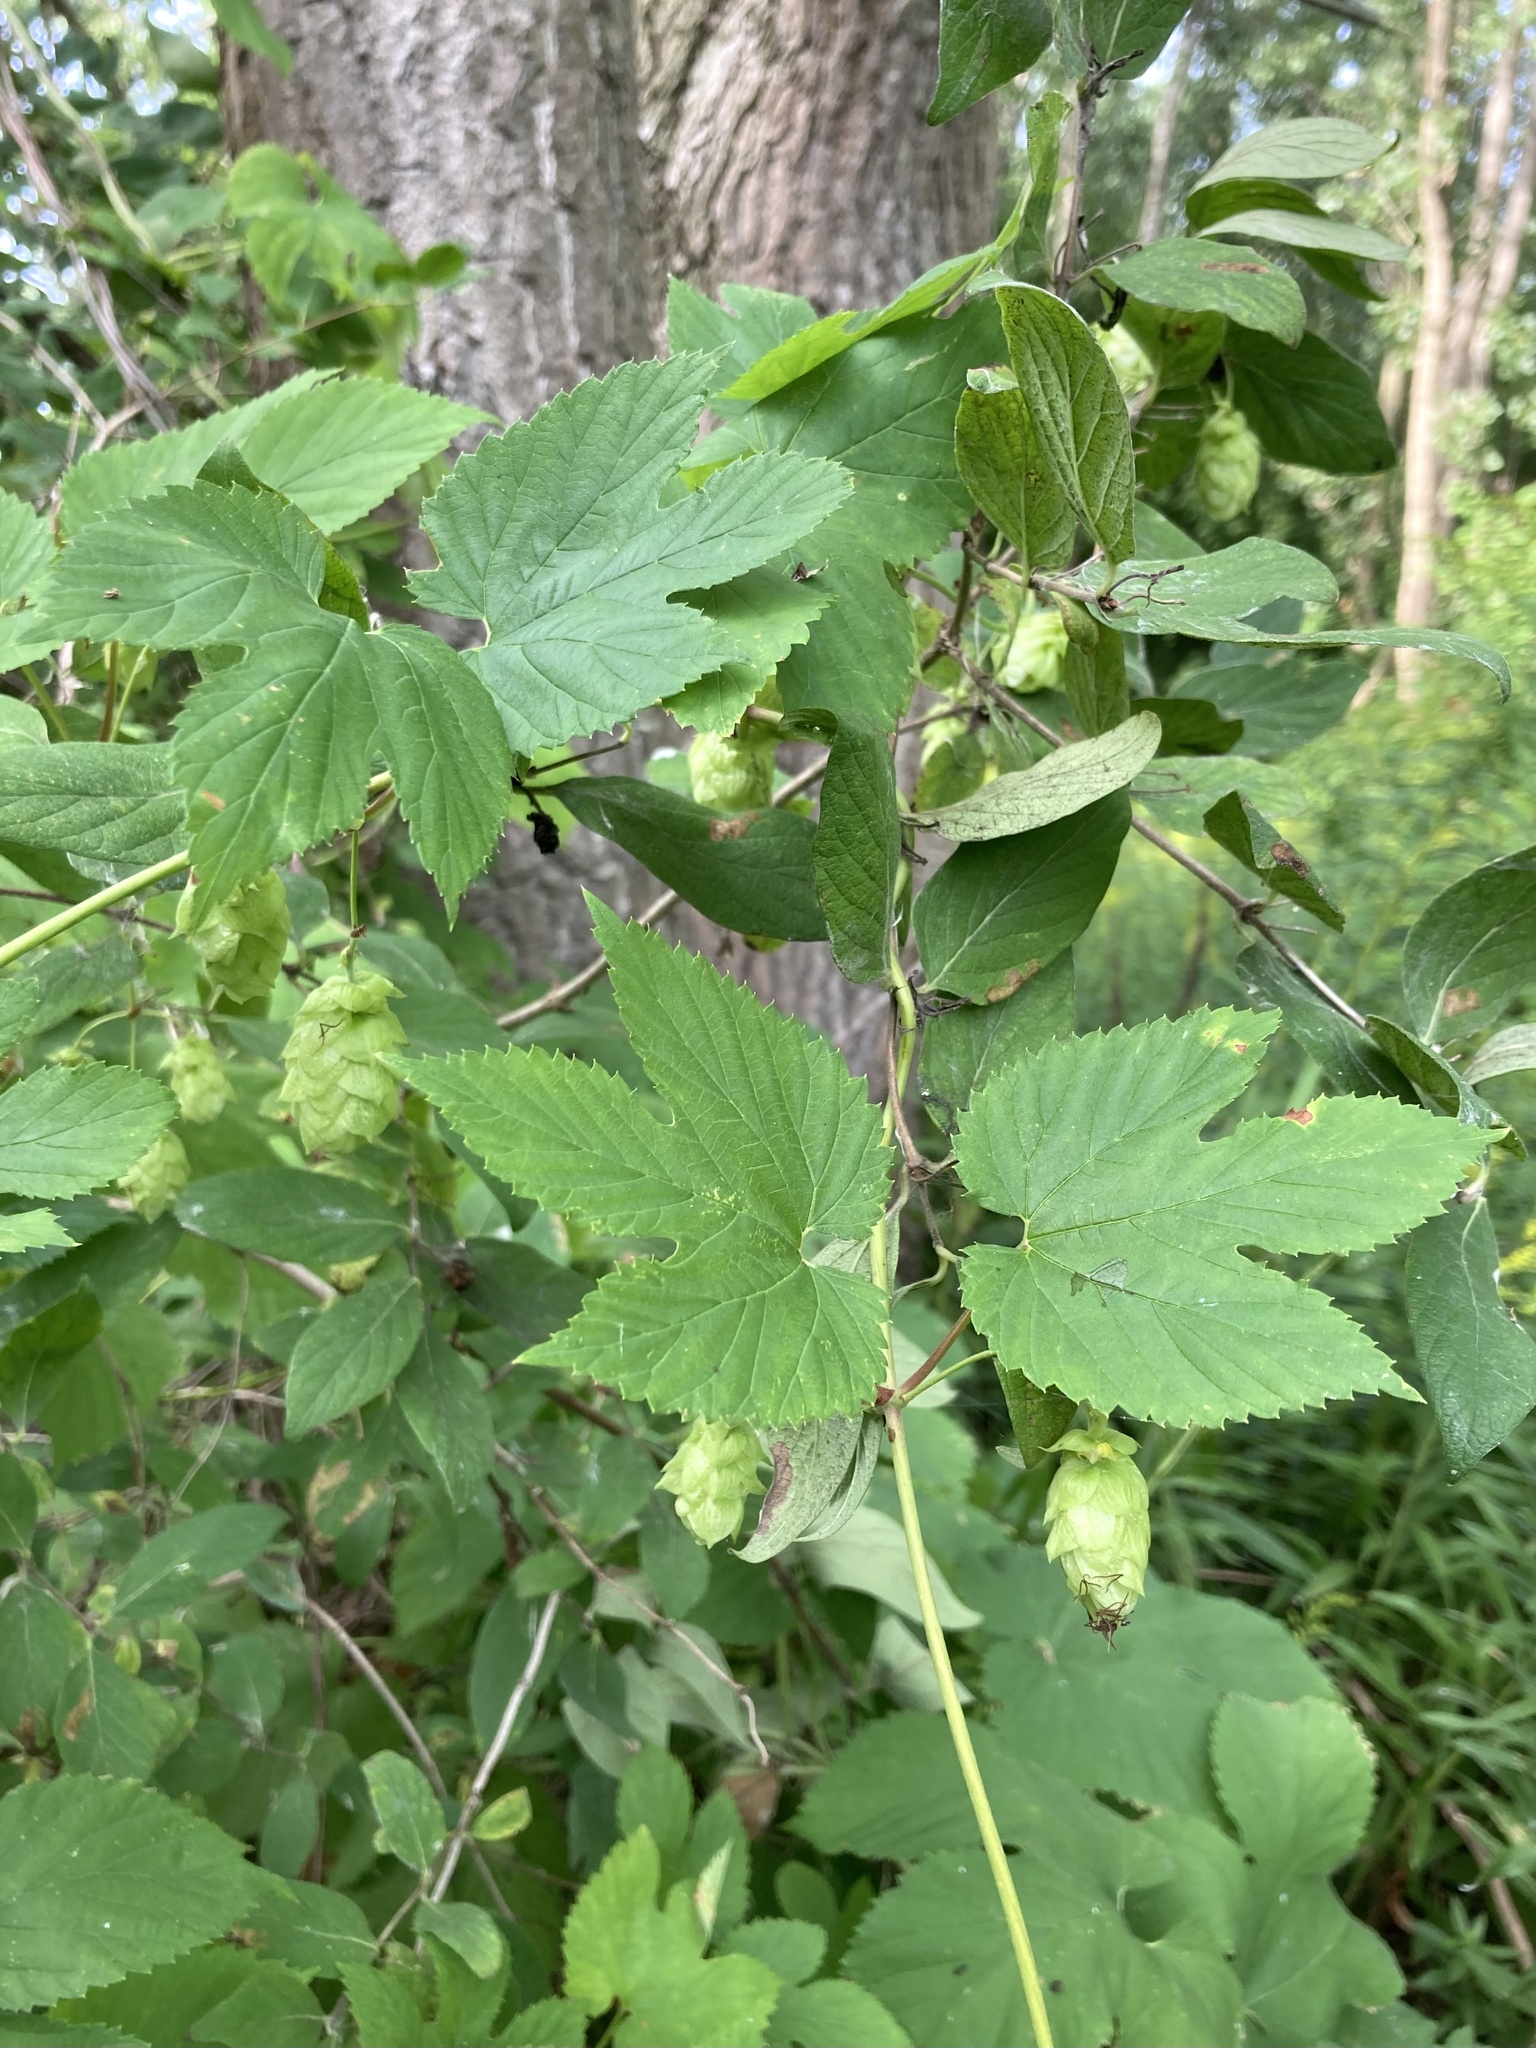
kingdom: Plantae
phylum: Tracheophyta
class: Magnoliopsida
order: Rosales
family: Cannabaceae
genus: Humulus
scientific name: Humulus lupulus
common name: Hop
